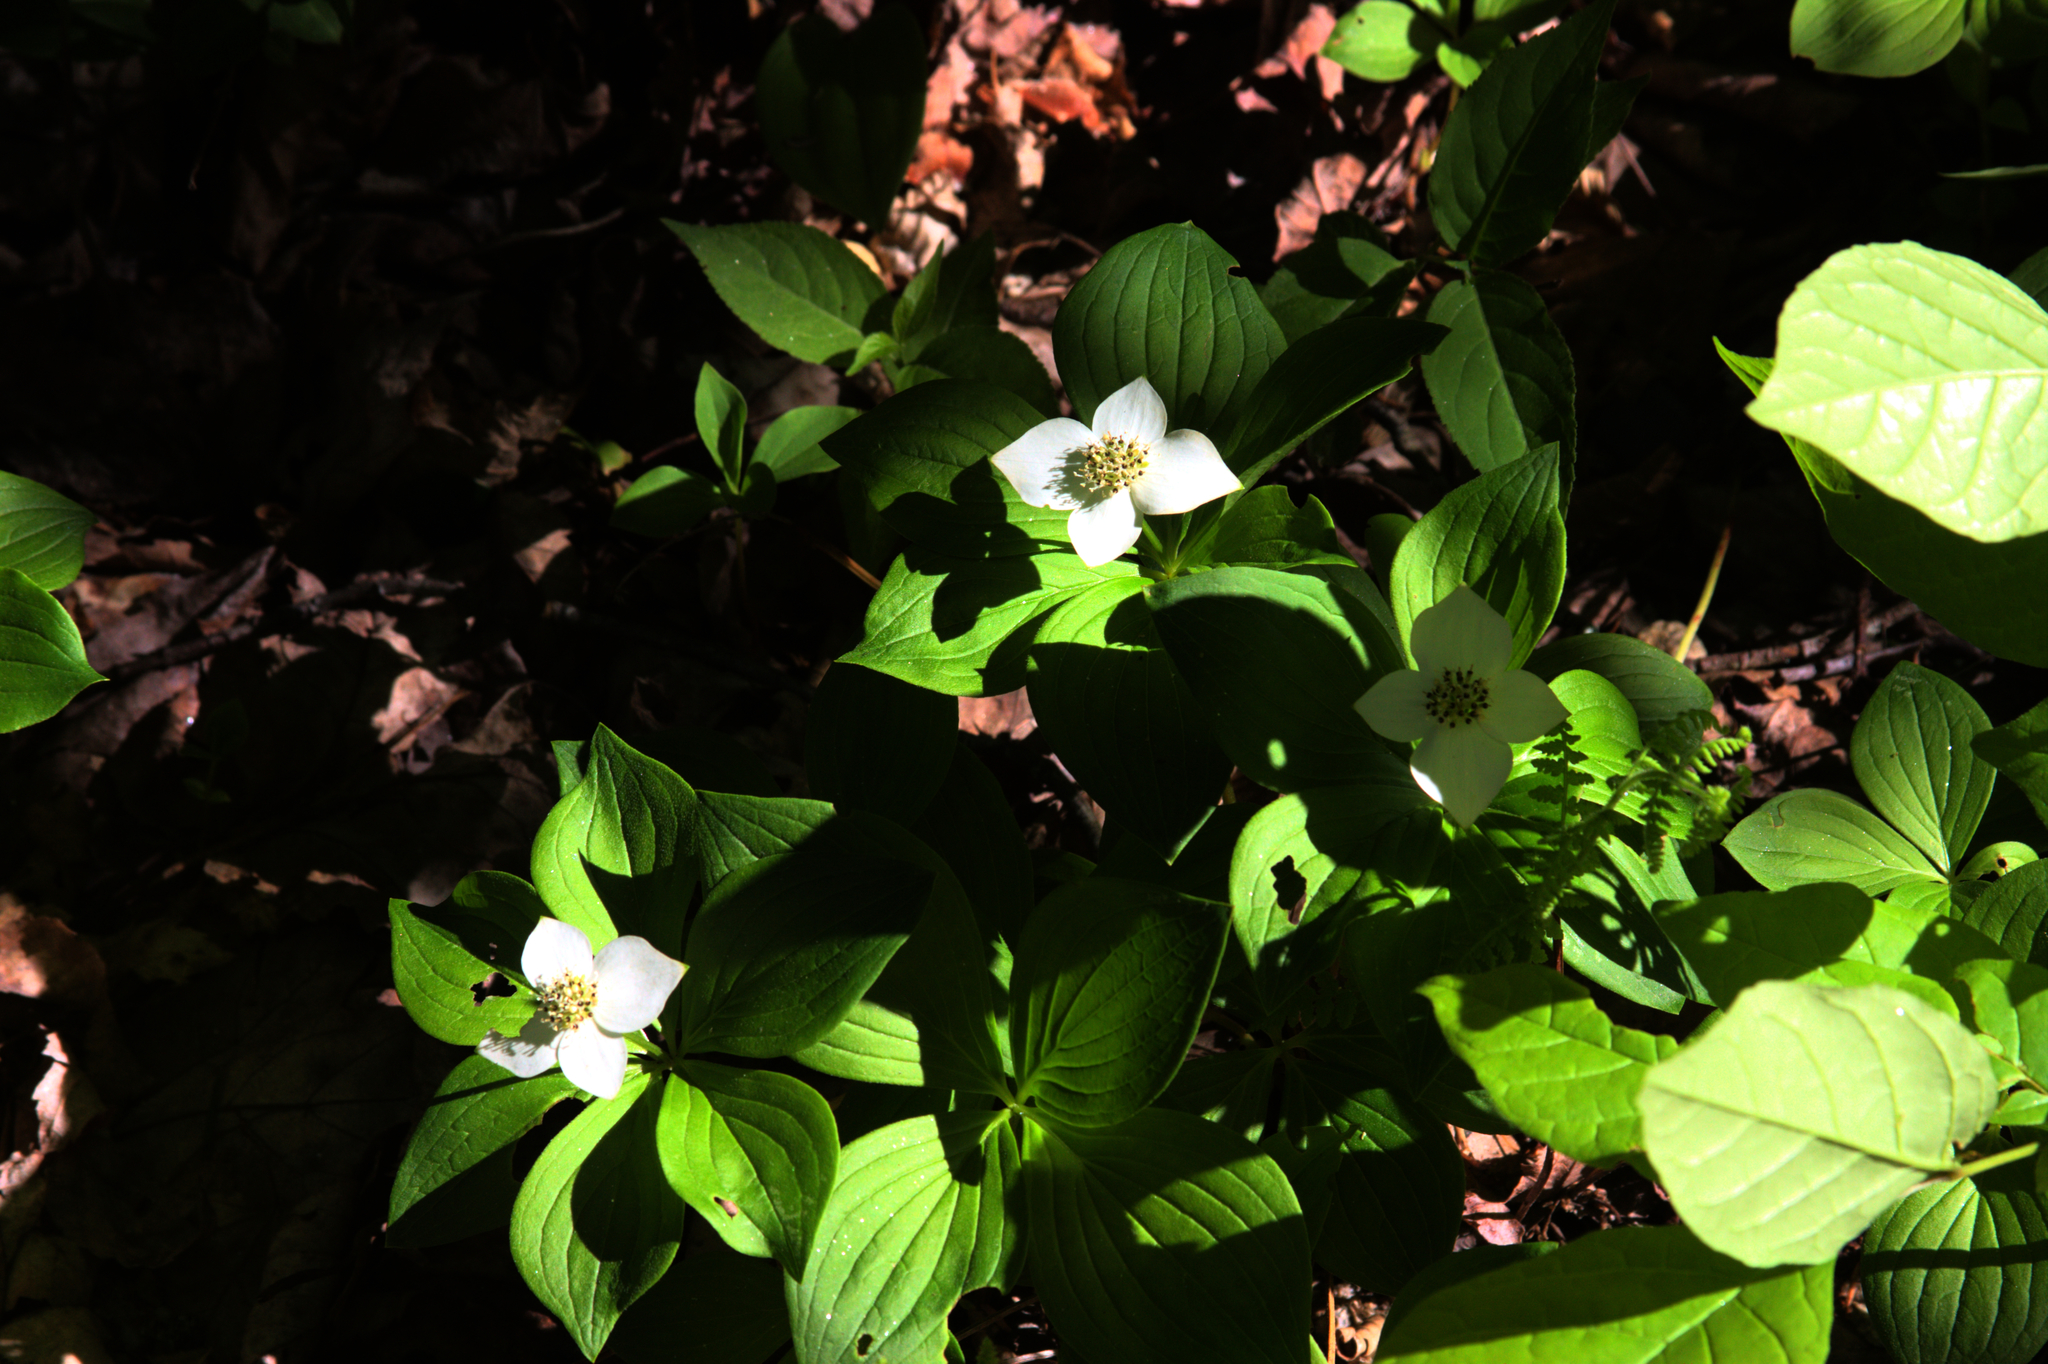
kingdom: Plantae
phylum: Tracheophyta
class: Magnoliopsida
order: Cornales
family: Cornaceae
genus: Cornus
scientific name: Cornus canadensis
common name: Creeping dogwood
